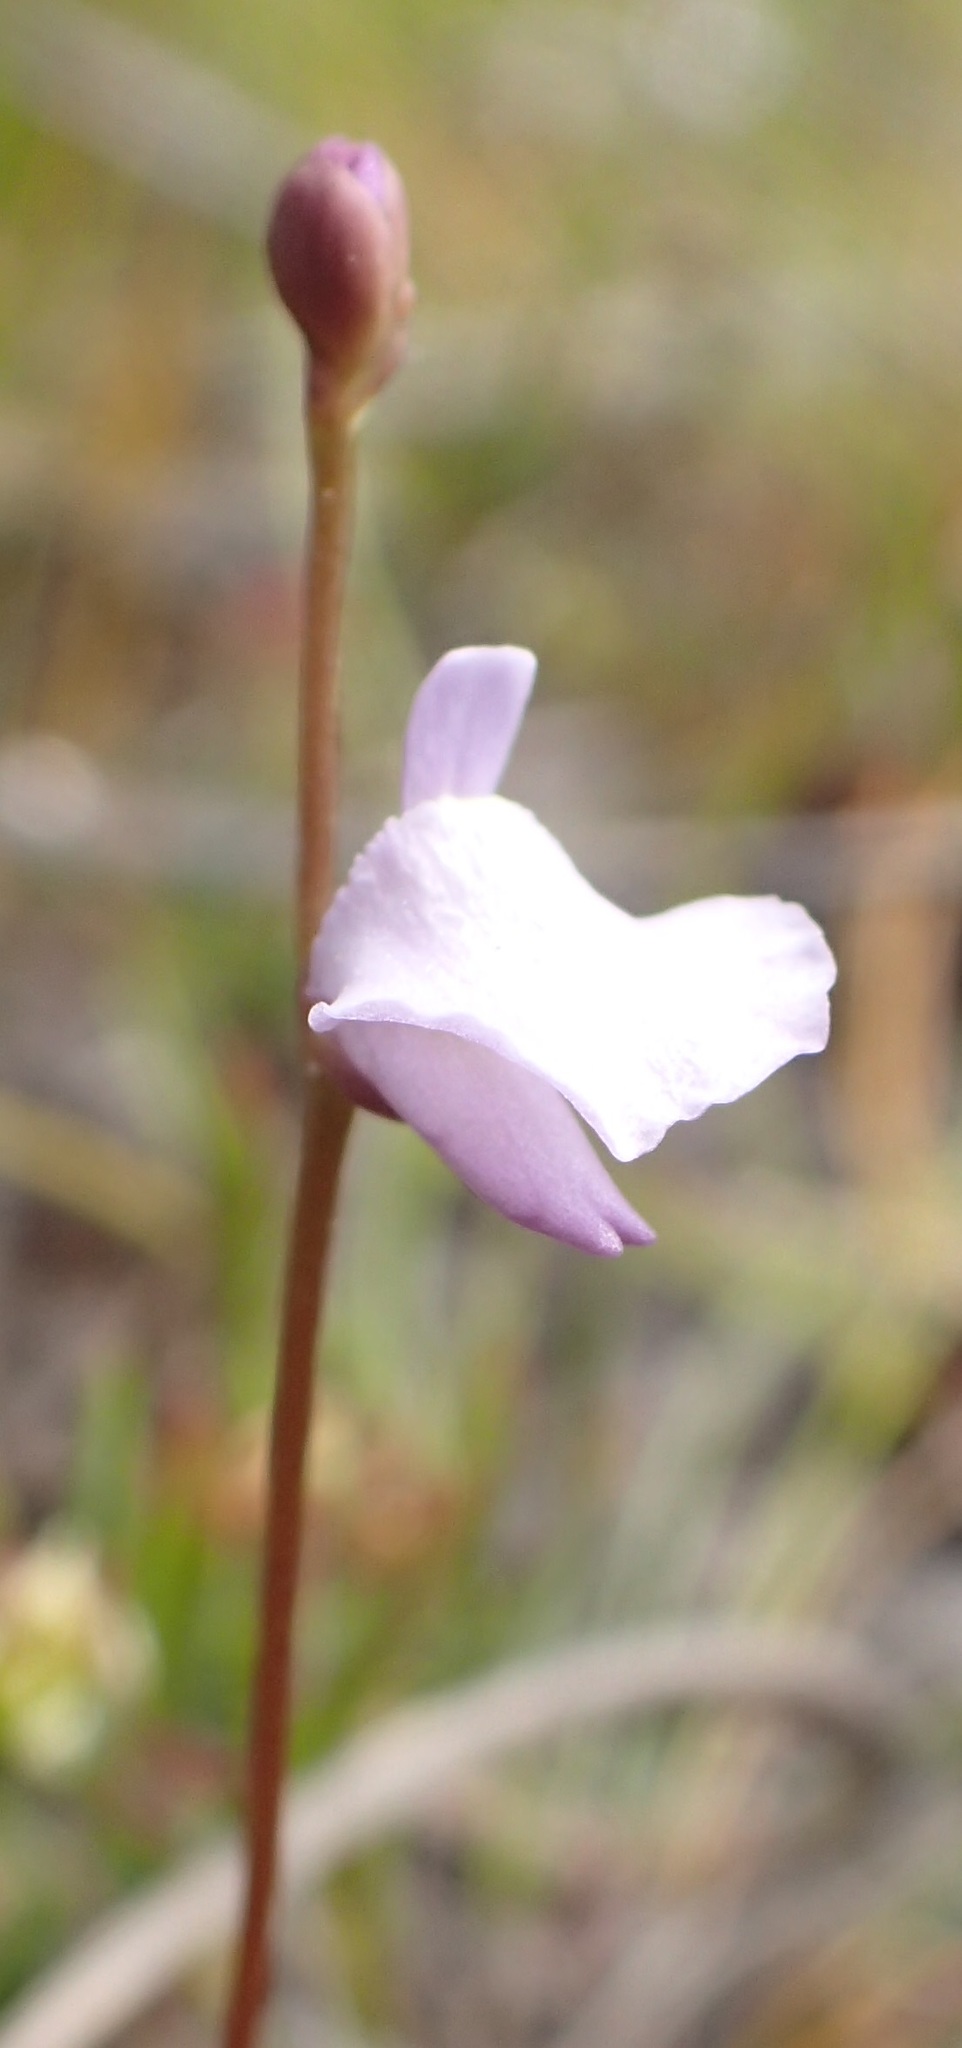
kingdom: Plantae
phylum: Tracheophyta
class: Magnoliopsida
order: Lamiales
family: Lentibulariaceae
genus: Utricularia
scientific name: Utricularia lateriflora
